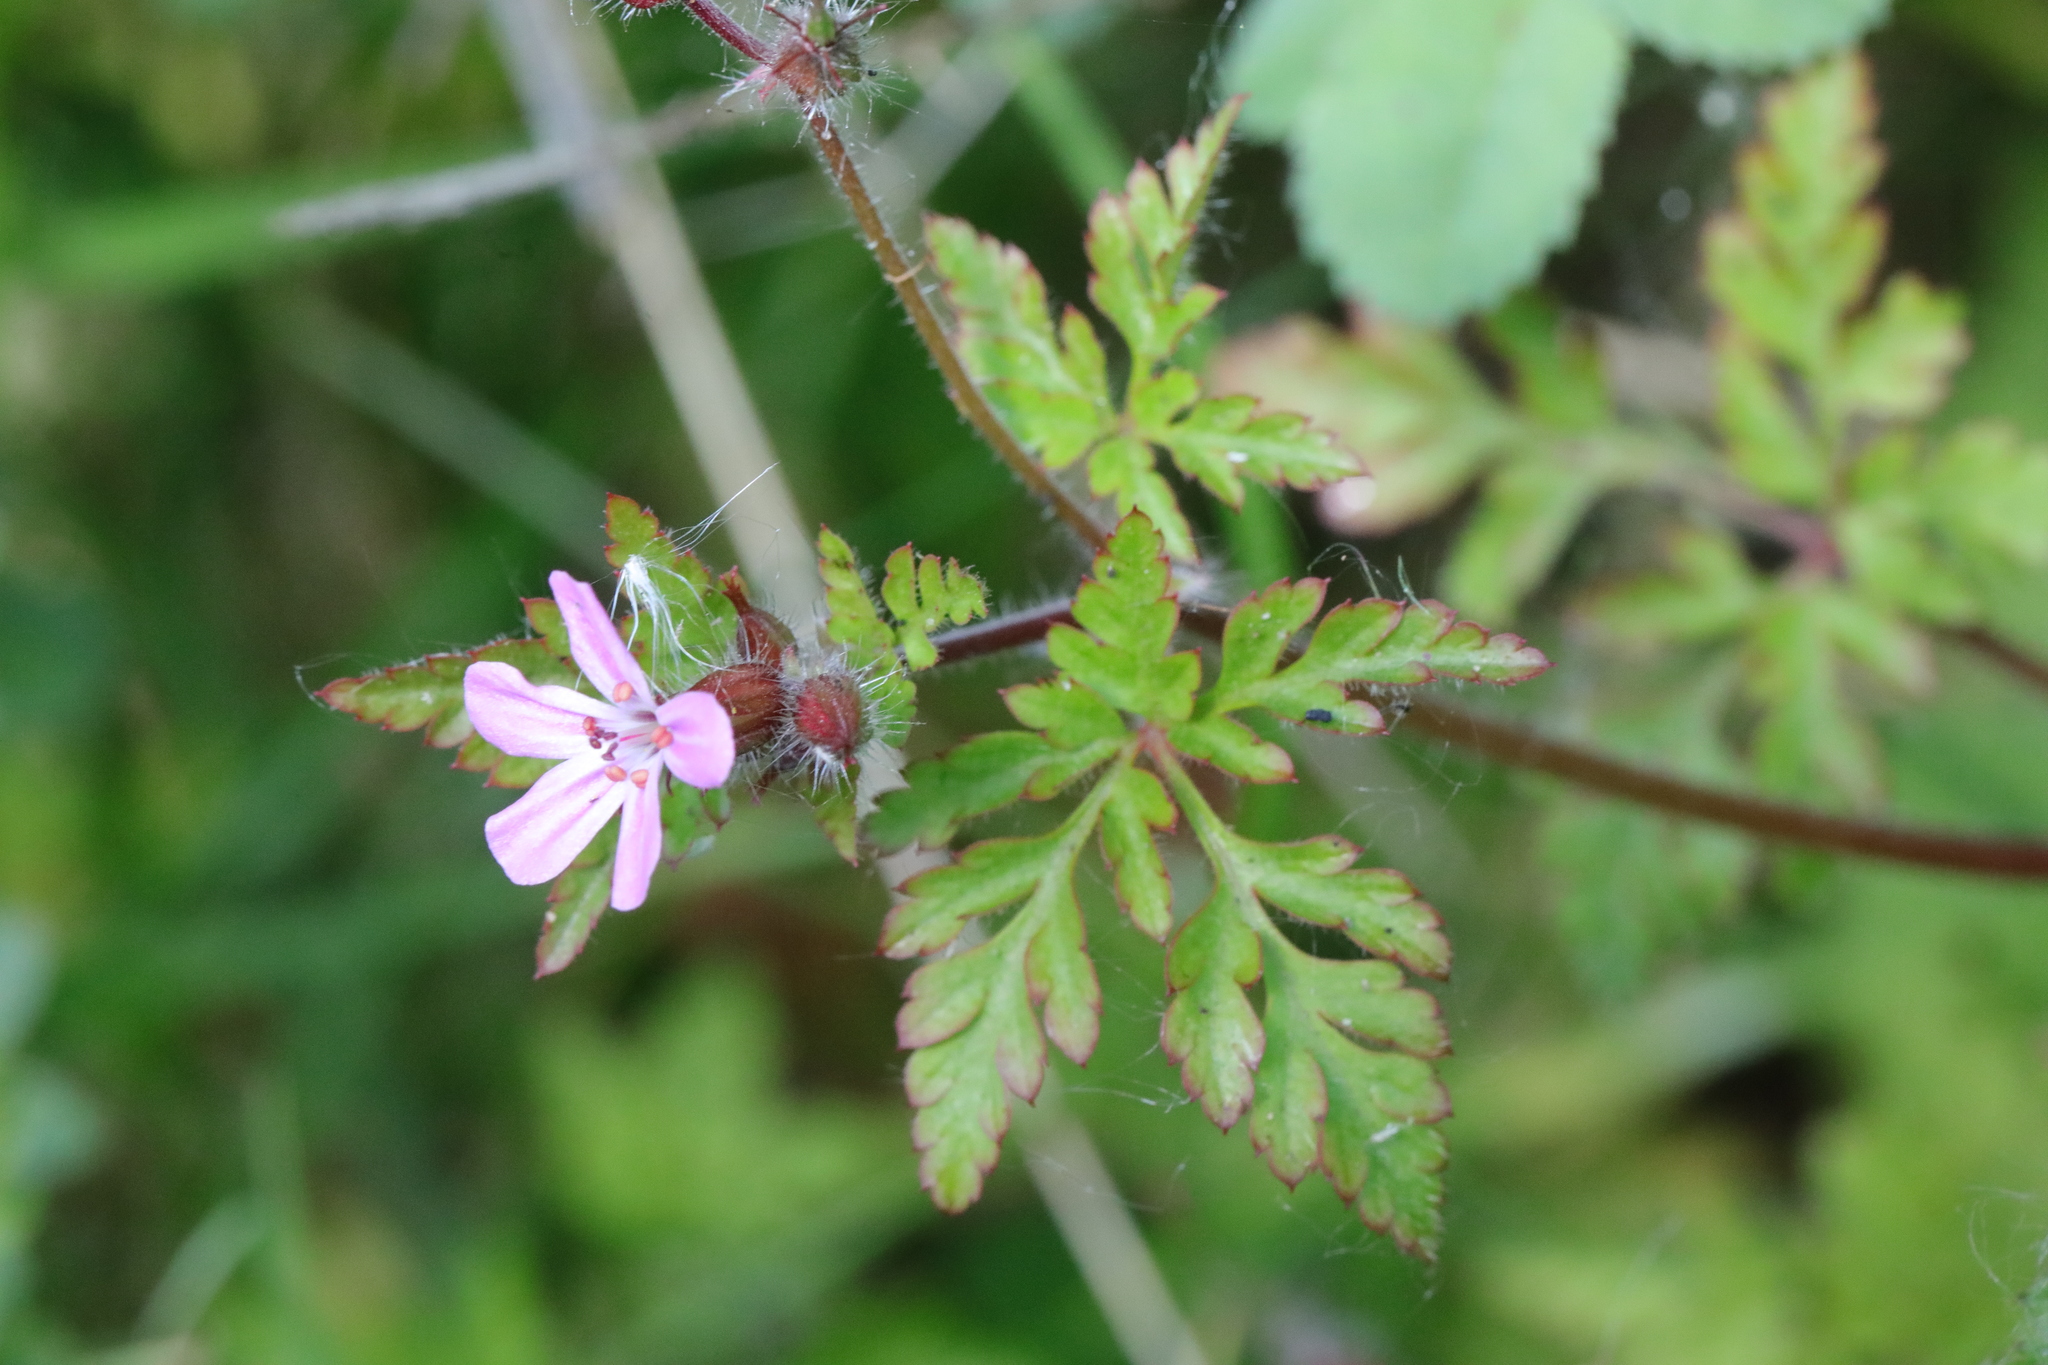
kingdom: Plantae
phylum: Tracheophyta
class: Magnoliopsida
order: Geraniales
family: Geraniaceae
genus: Geranium
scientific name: Geranium robertianum
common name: Herb-robert
